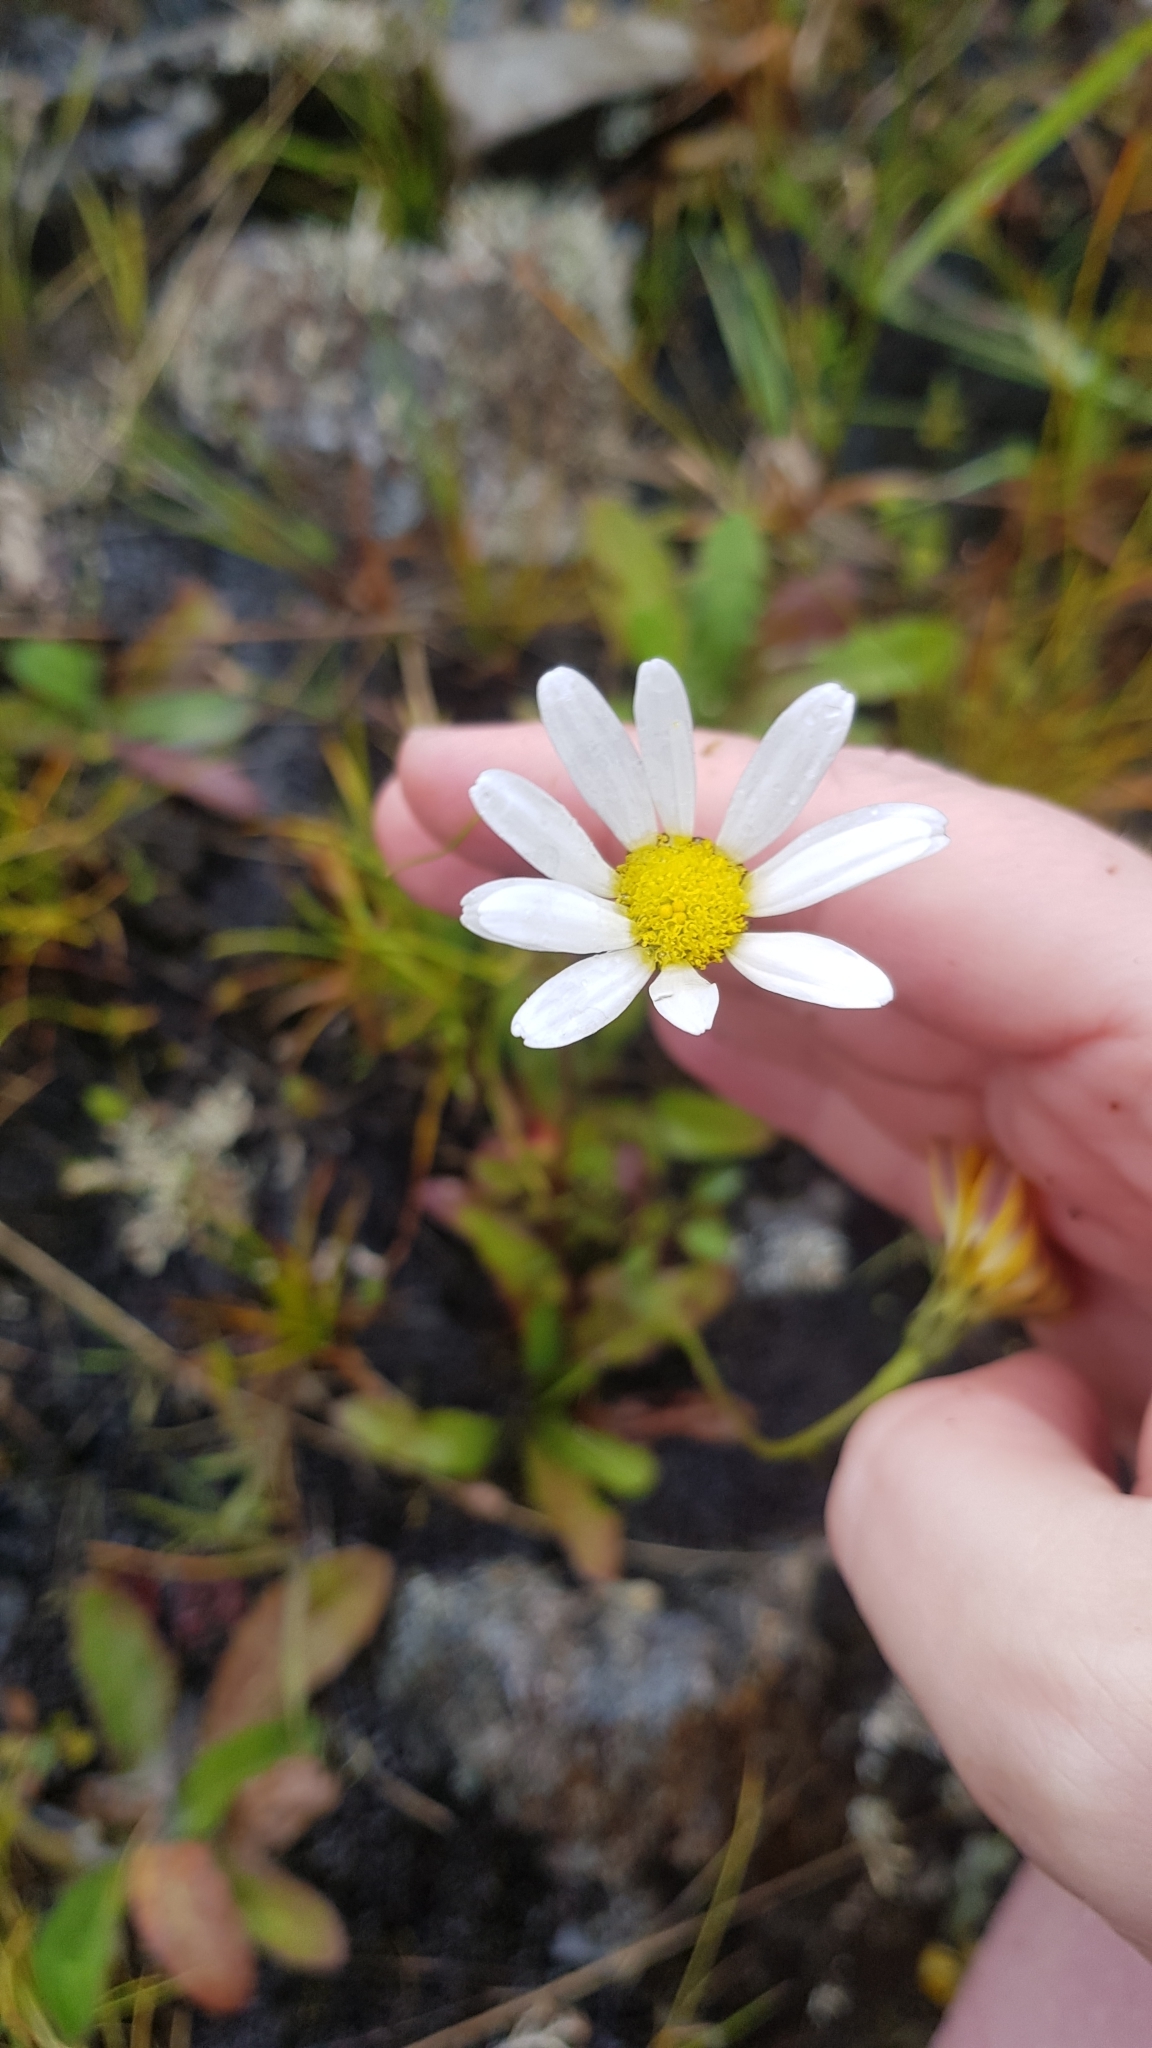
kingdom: Plantae
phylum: Tracheophyta
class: Magnoliopsida
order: Asterales
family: Asteraceae
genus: Leucanthemum
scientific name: Leucanthemum vulgare
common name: Oxeye daisy
